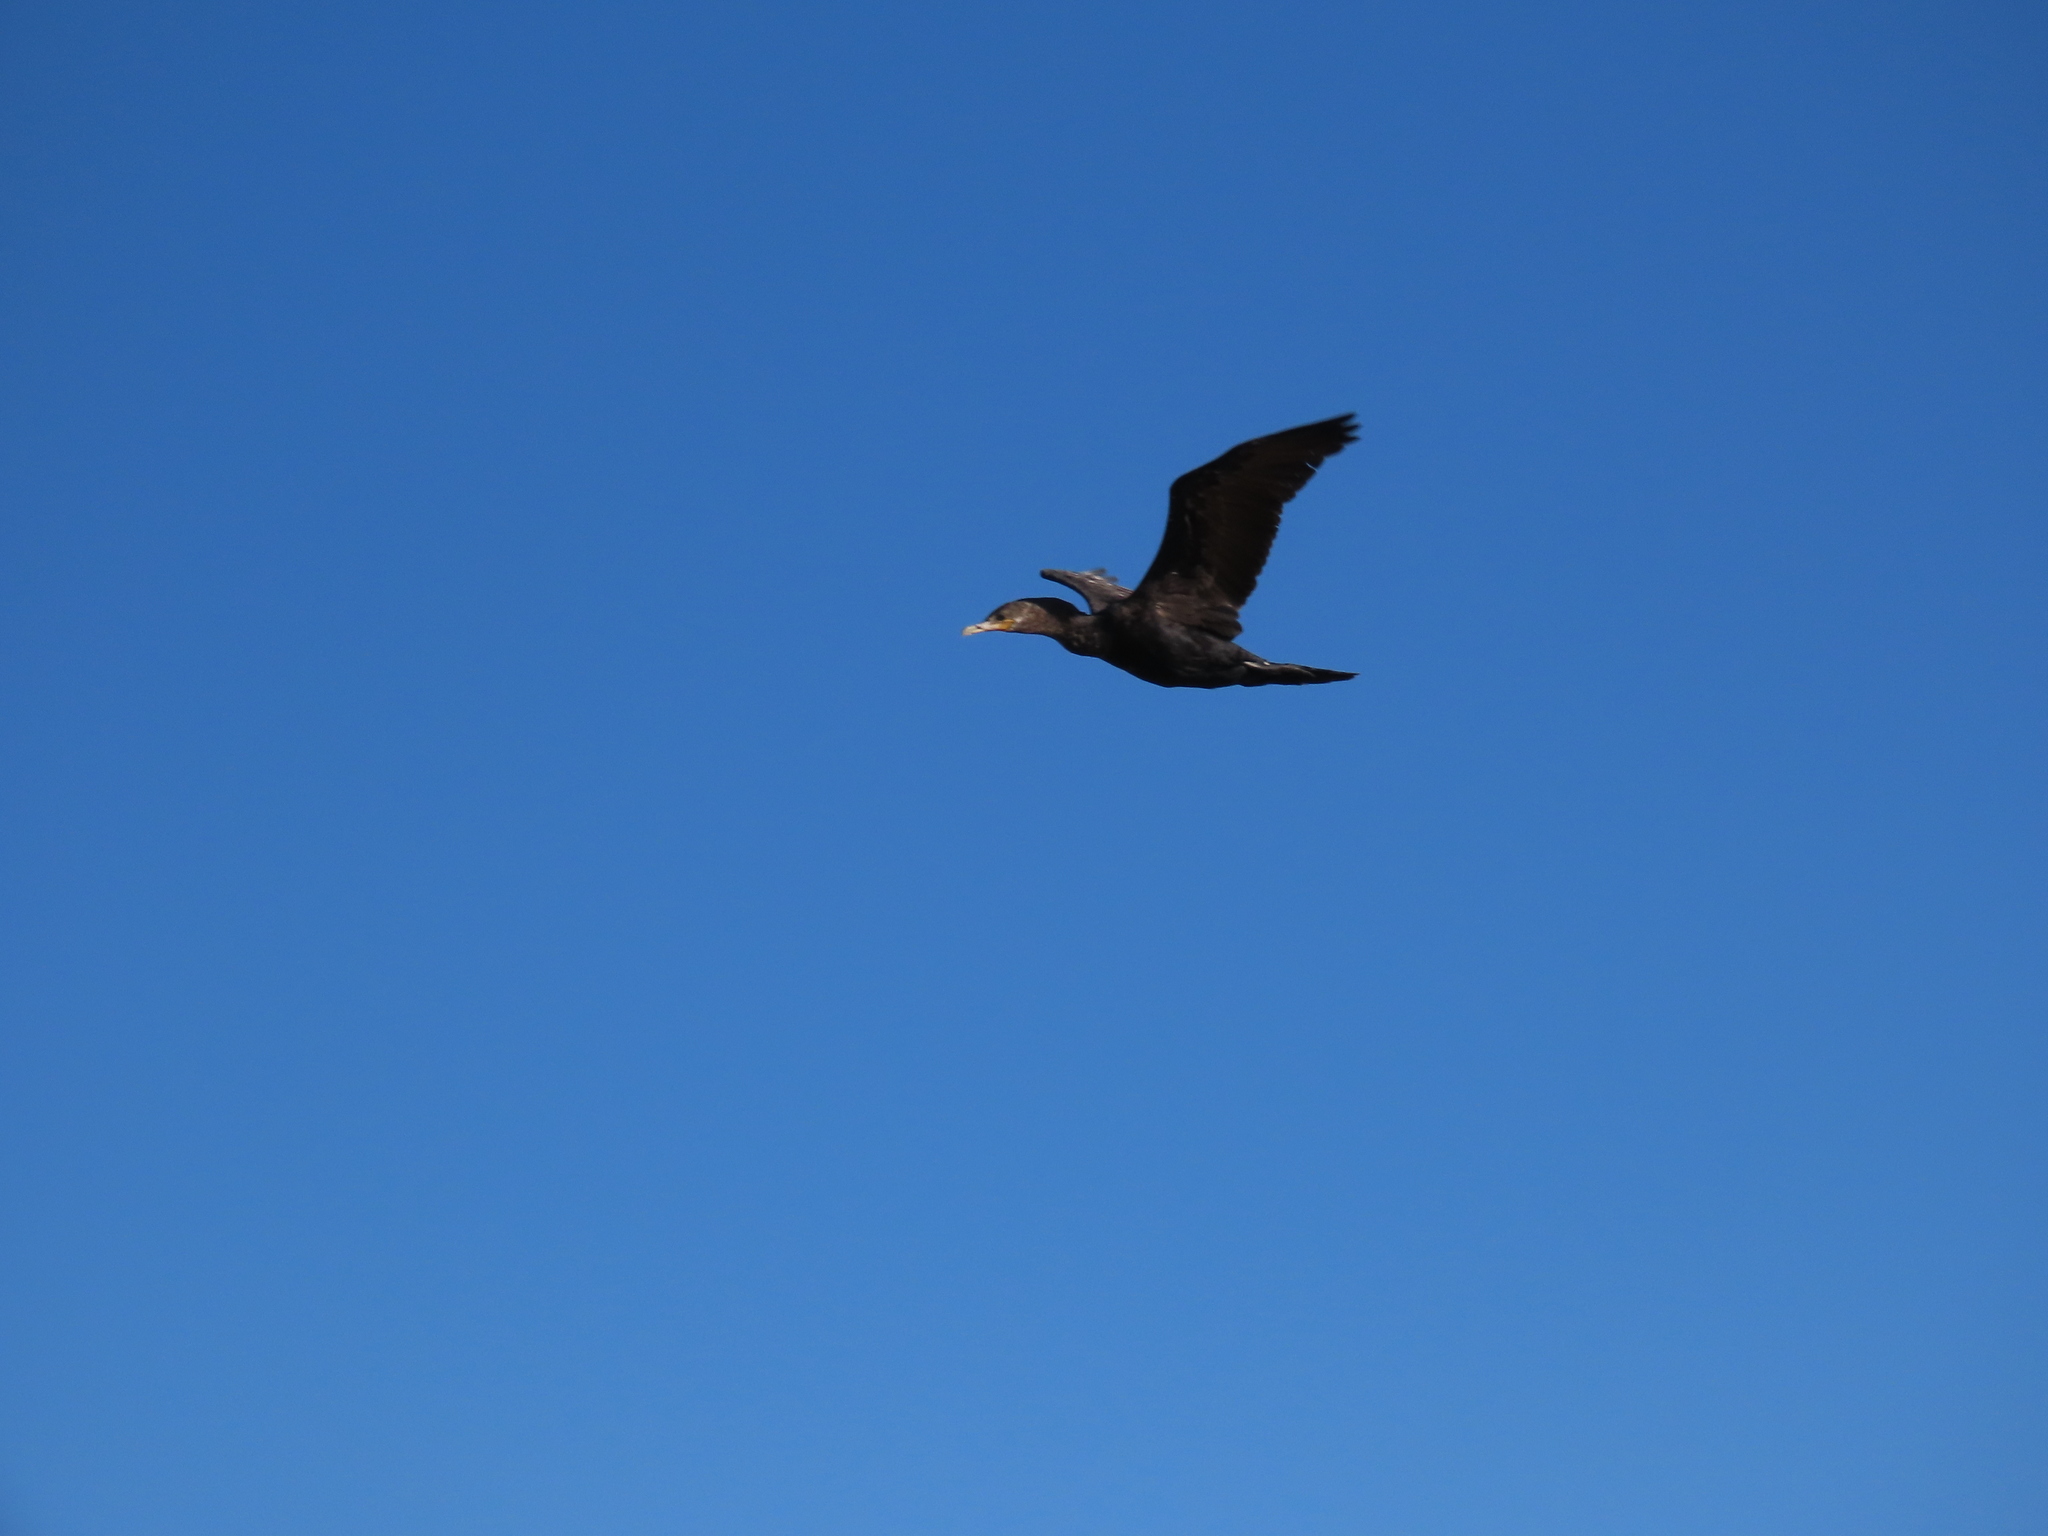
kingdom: Animalia
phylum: Chordata
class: Aves
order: Suliformes
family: Phalacrocoracidae
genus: Phalacrocorax
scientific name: Phalacrocorax brasilianus
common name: Neotropic cormorant
